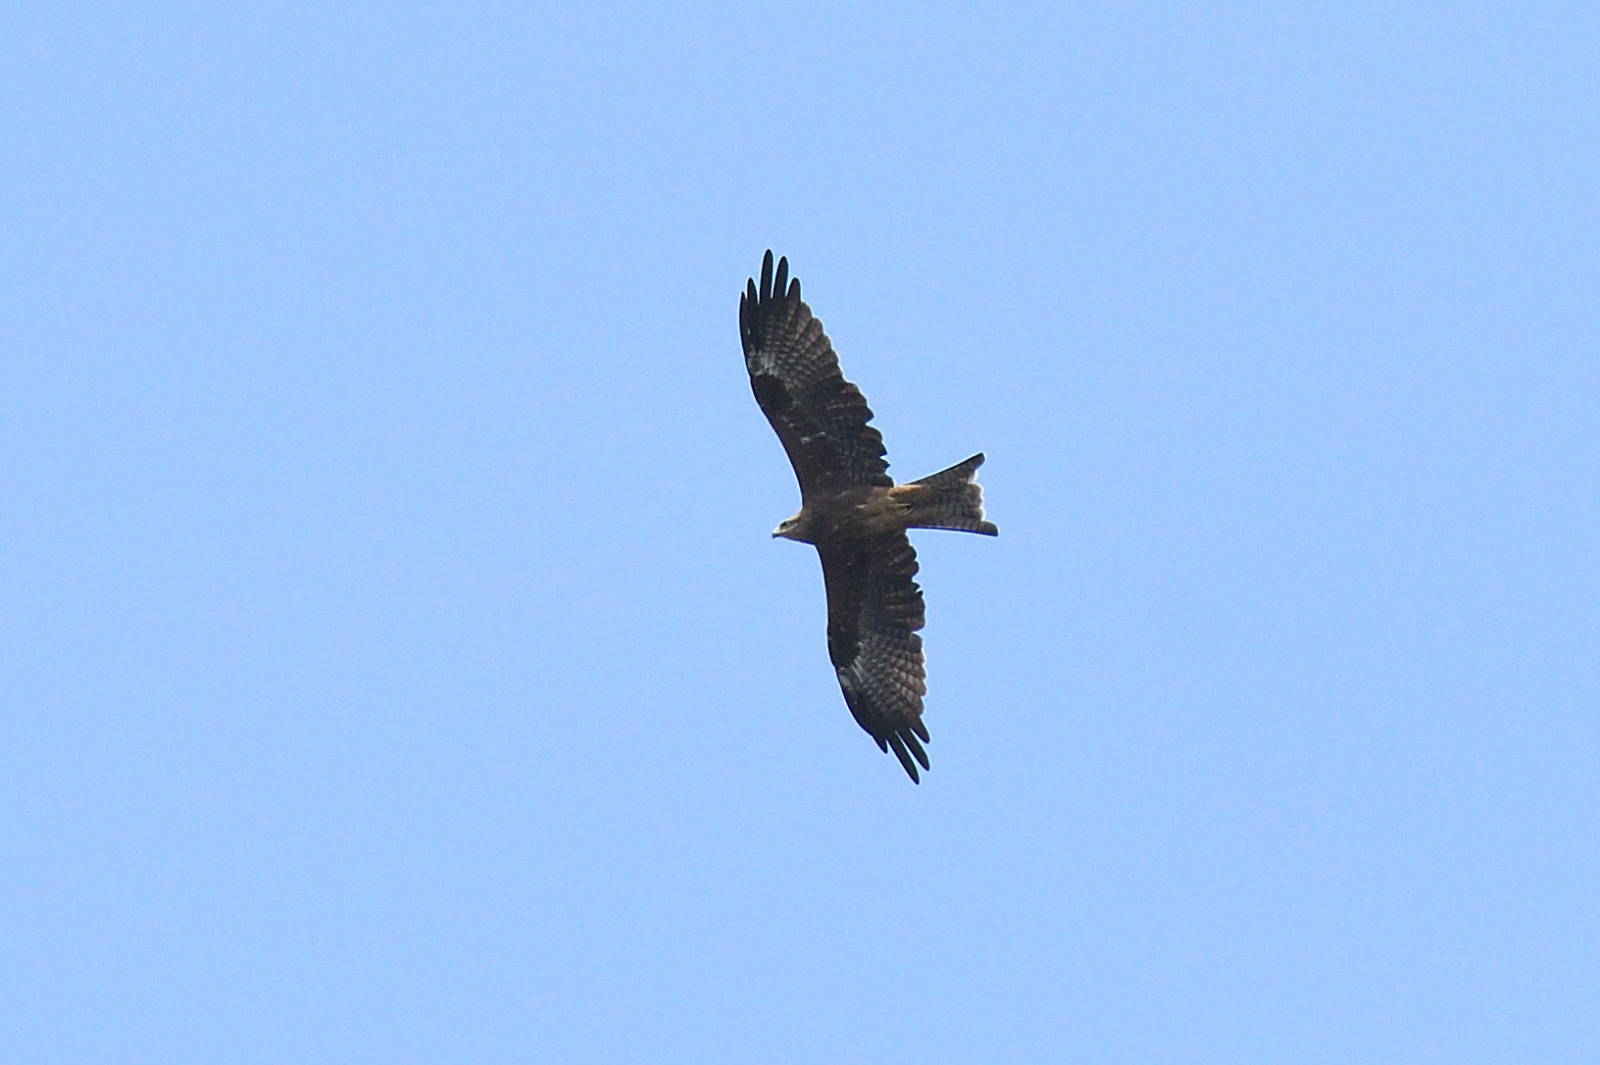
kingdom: Animalia
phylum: Chordata
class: Aves
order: Accipitriformes
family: Accipitridae
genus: Milvus
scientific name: Milvus migrans
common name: Black kite
